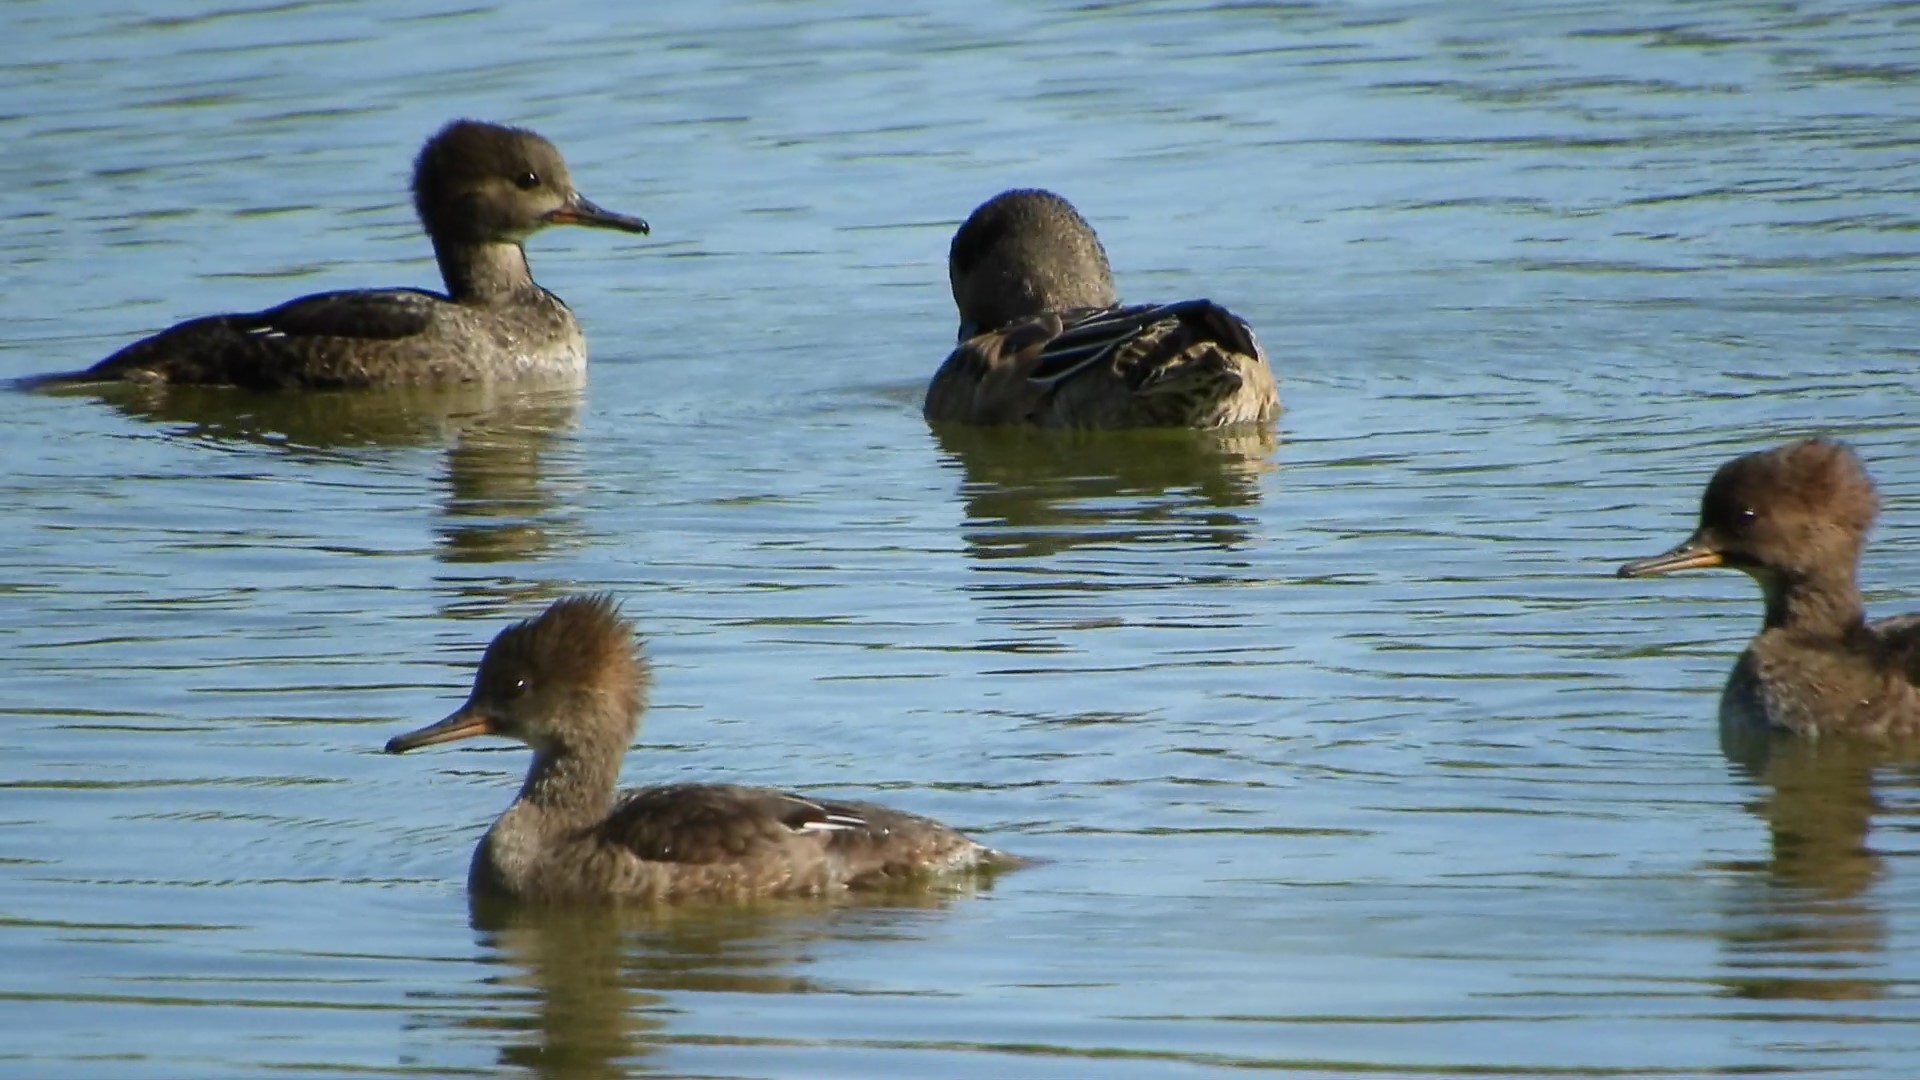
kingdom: Animalia
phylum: Chordata
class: Aves
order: Anseriformes
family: Anatidae
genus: Lophodytes
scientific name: Lophodytes cucullatus
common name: Hooded merganser
